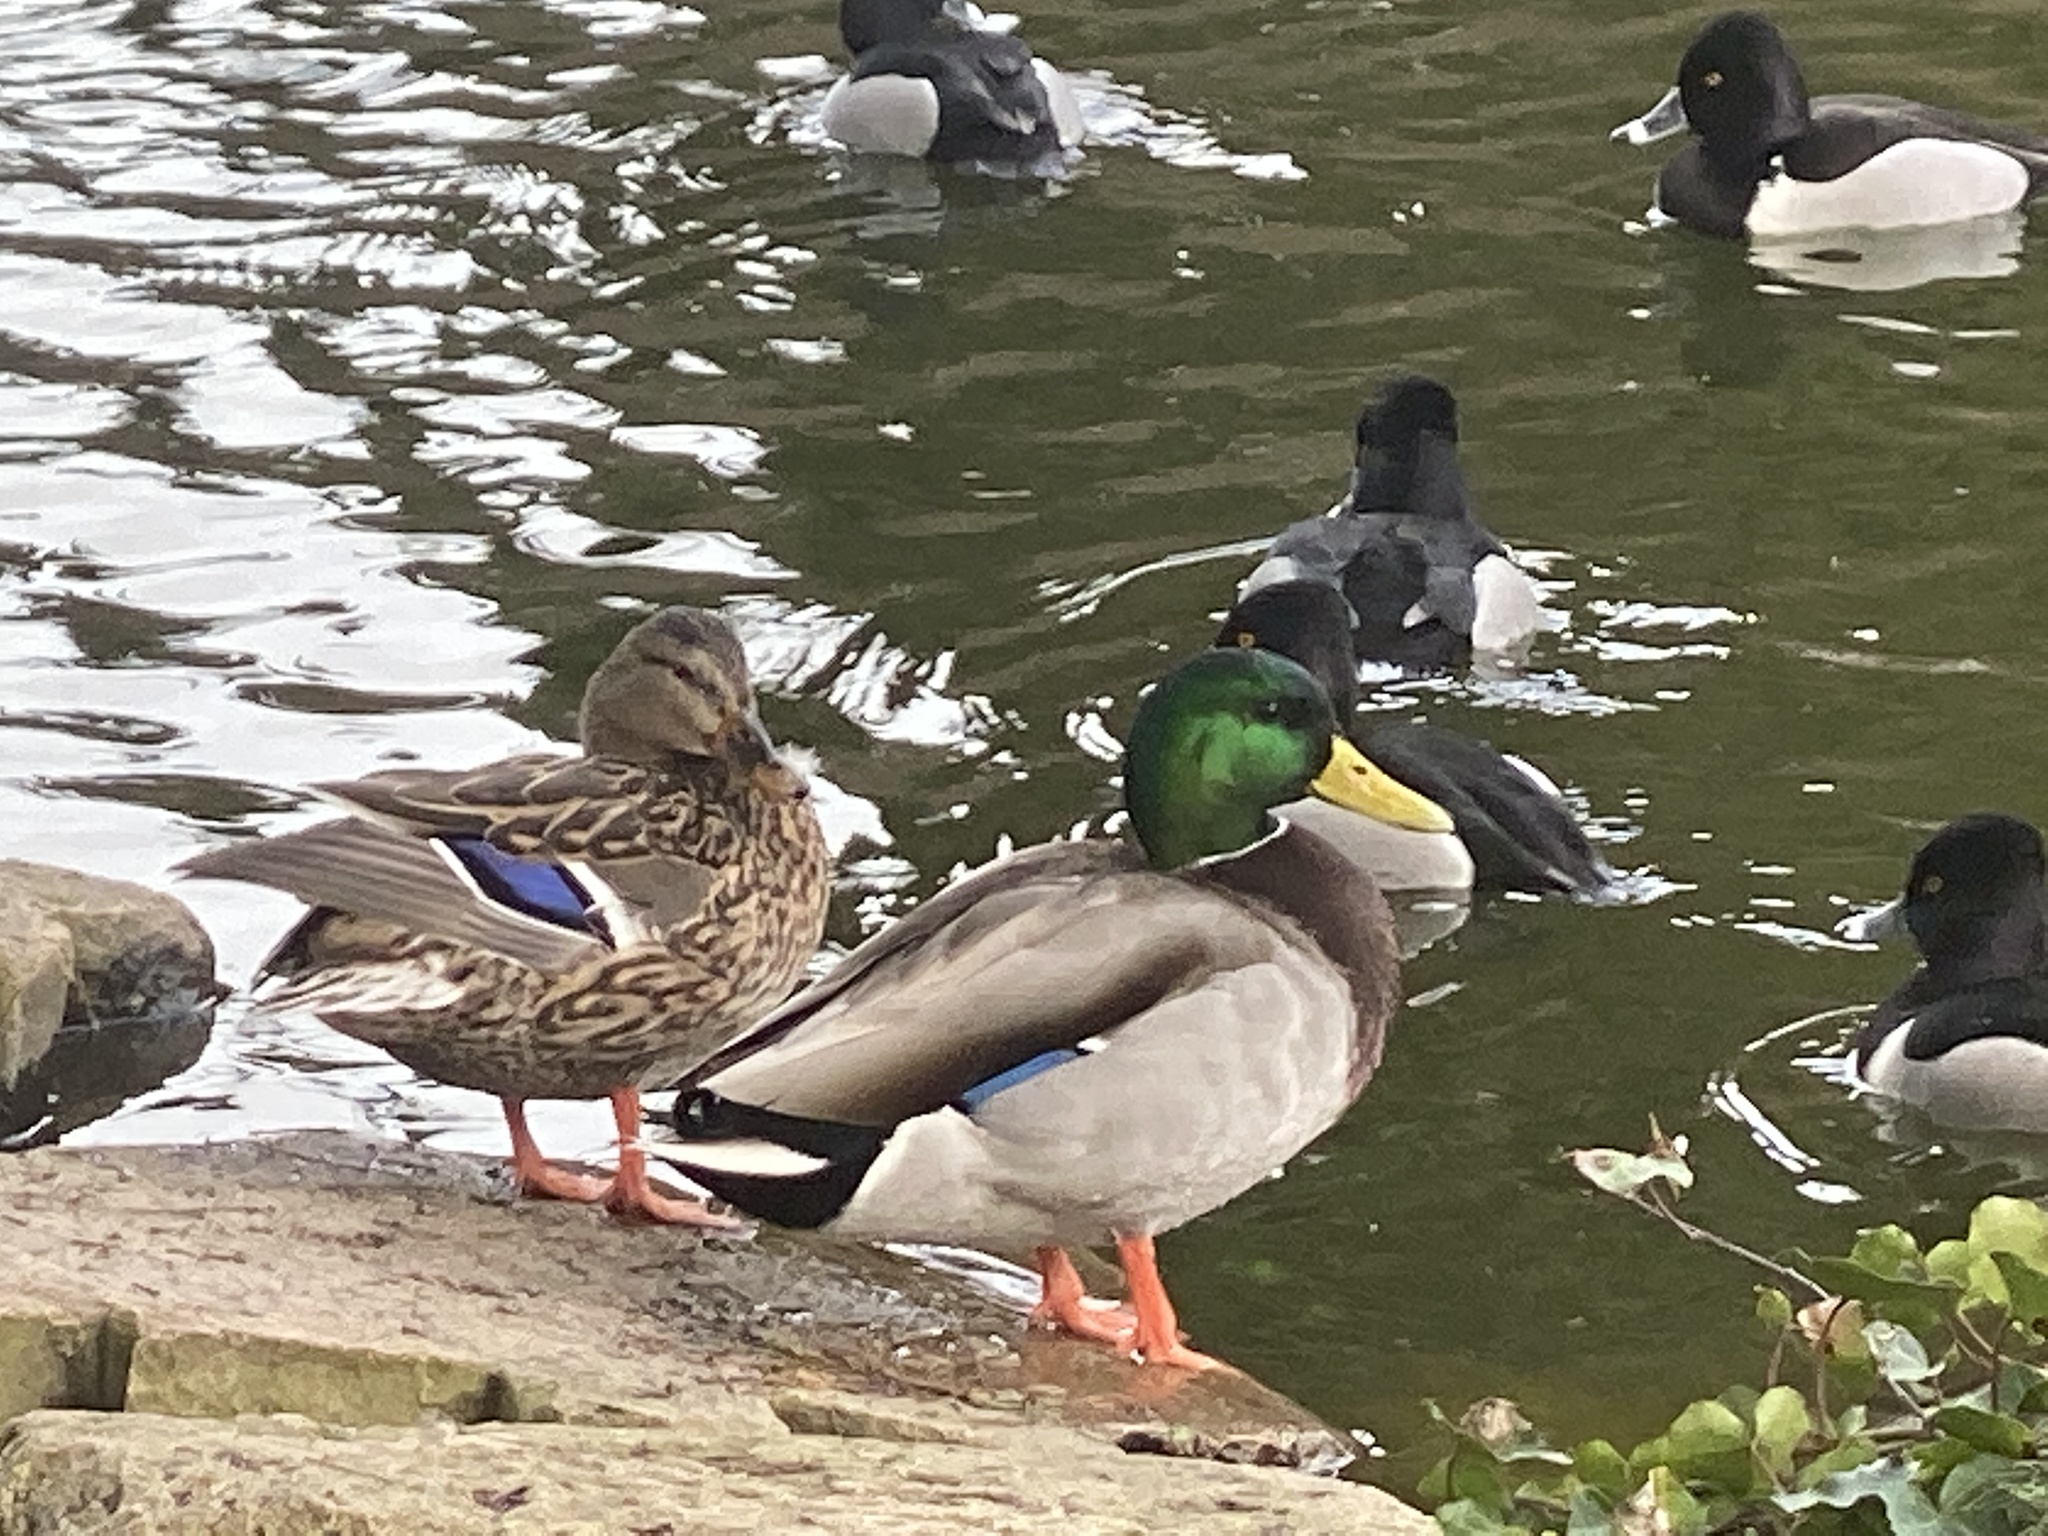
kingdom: Animalia
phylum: Chordata
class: Aves
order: Anseriformes
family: Anatidae
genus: Anas
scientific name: Anas platyrhynchos
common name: Mallard
